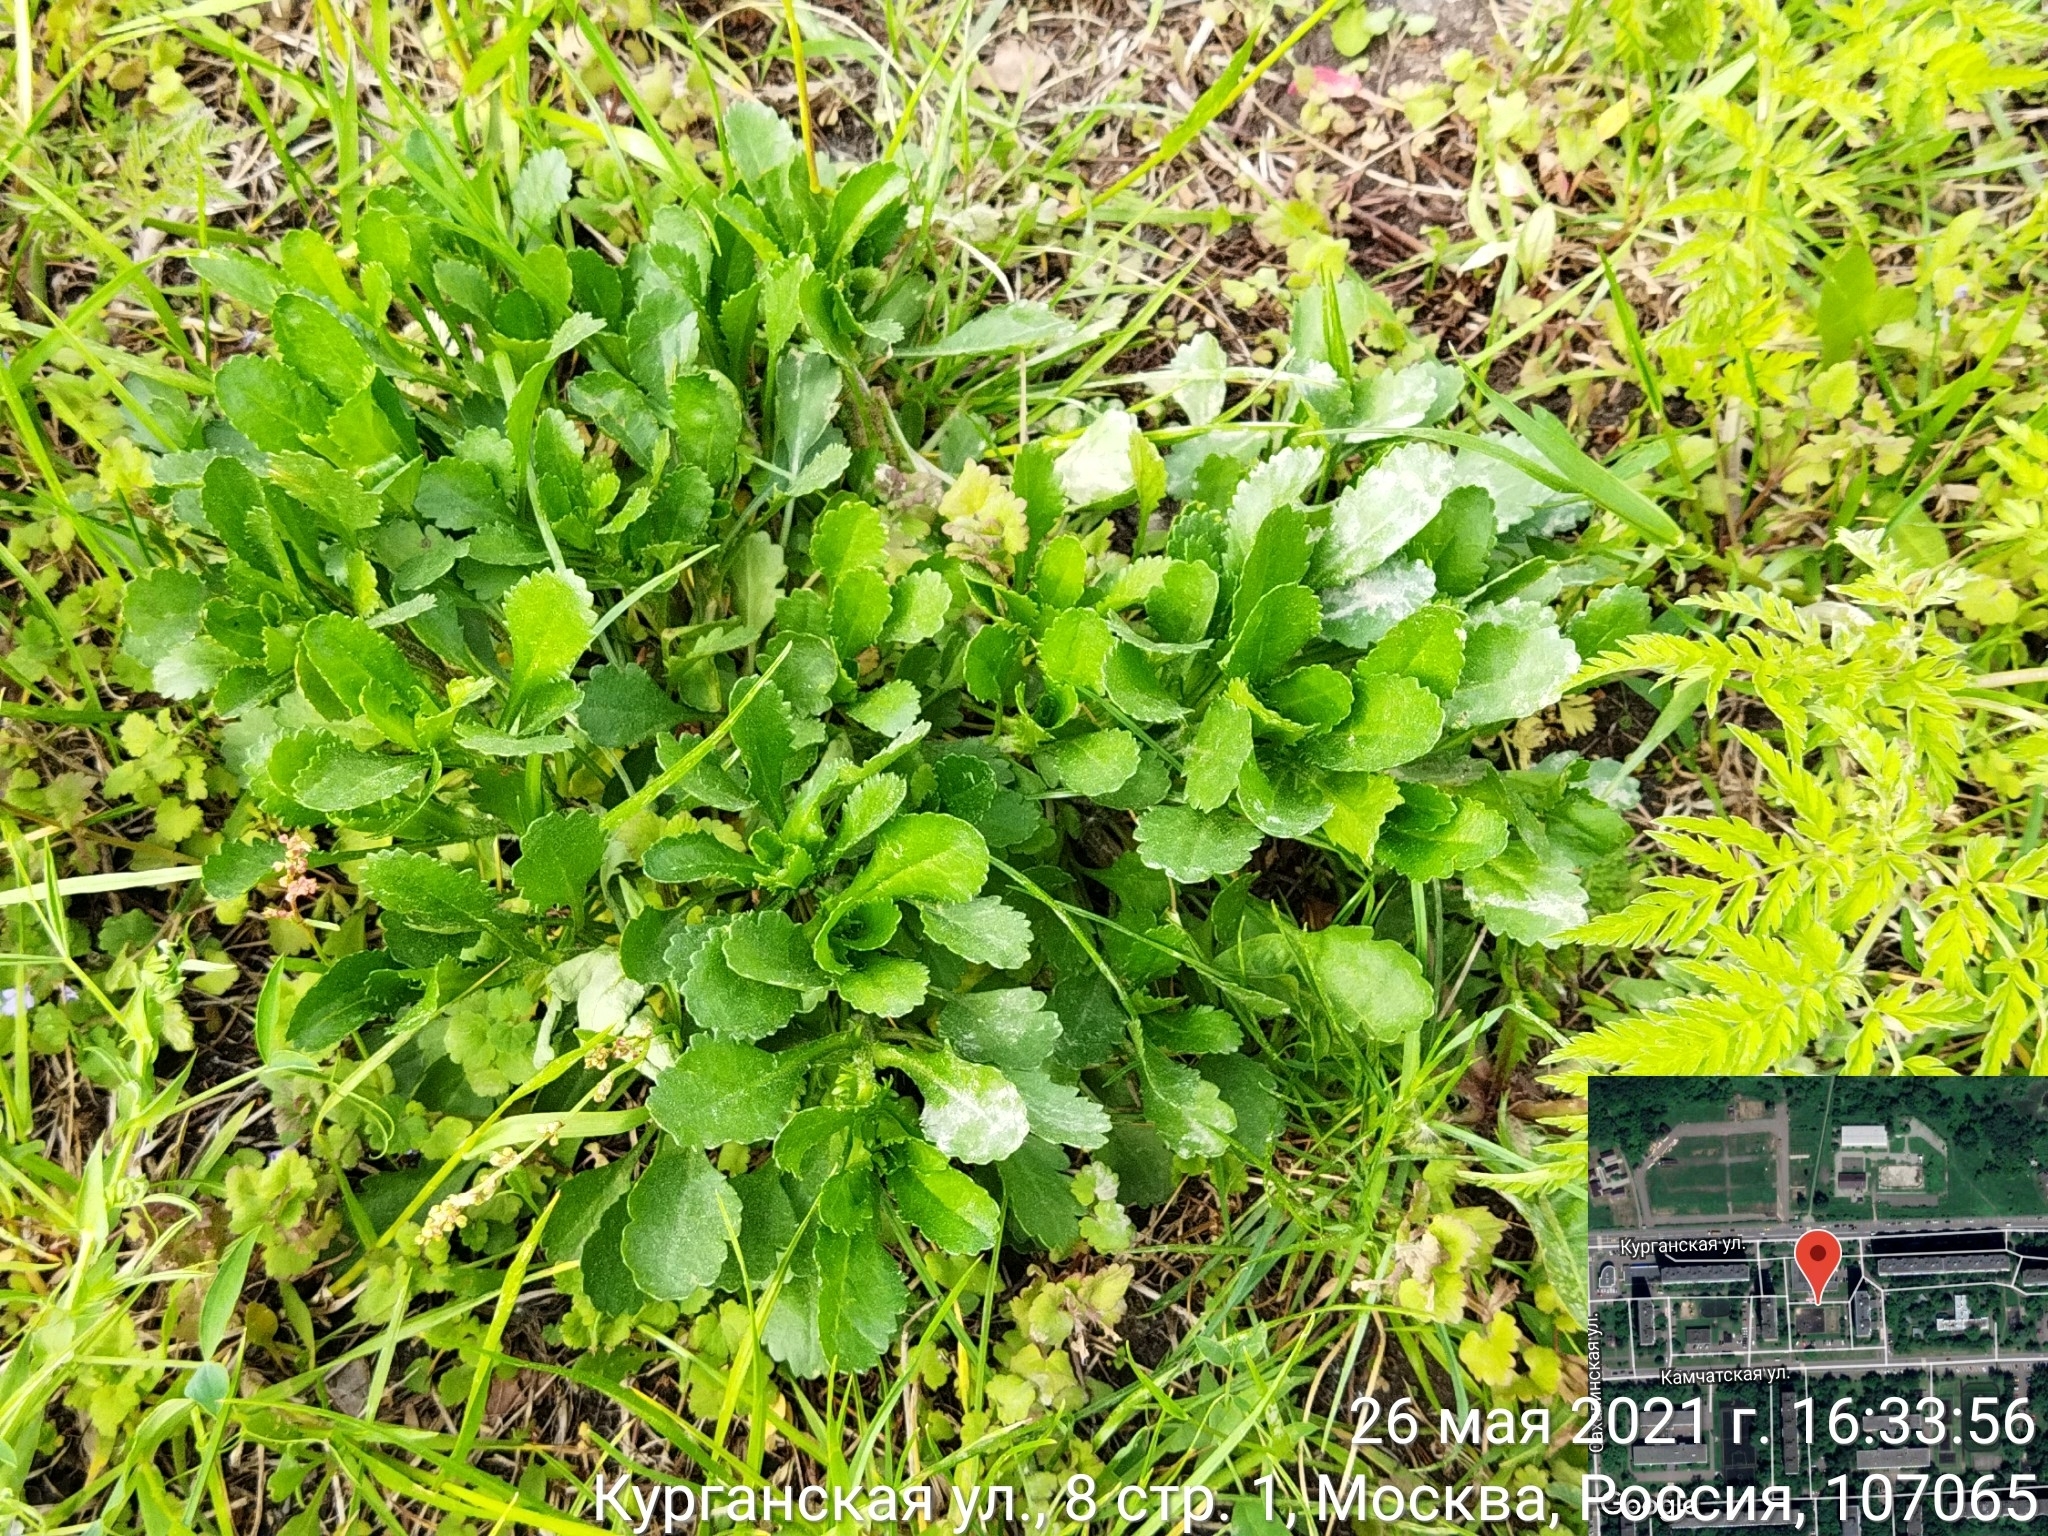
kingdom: Plantae
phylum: Tracheophyta
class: Magnoliopsida
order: Asterales
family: Asteraceae
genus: Leucanthemum
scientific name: Leucanthemum vulgare
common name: Oxeye daisy
